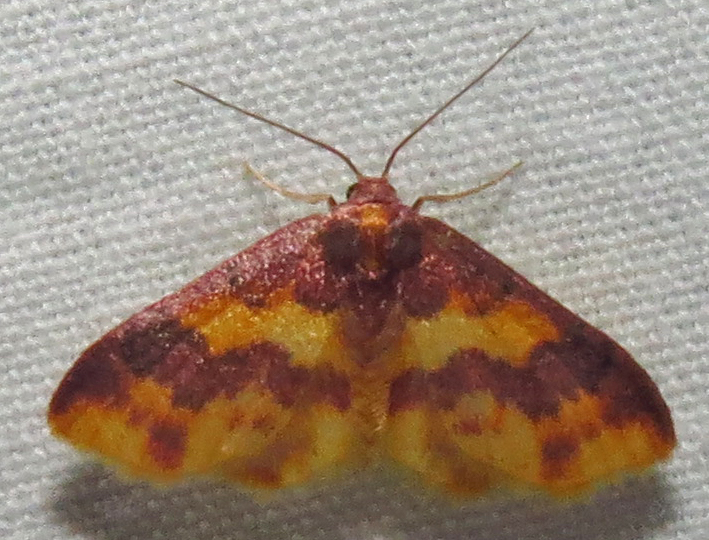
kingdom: Animalia
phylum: Arthropoda
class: Insecta
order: Lepidoptera
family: Geometridae
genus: Lophosis
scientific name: Lophosis labeculata
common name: Stained lophosis moth
